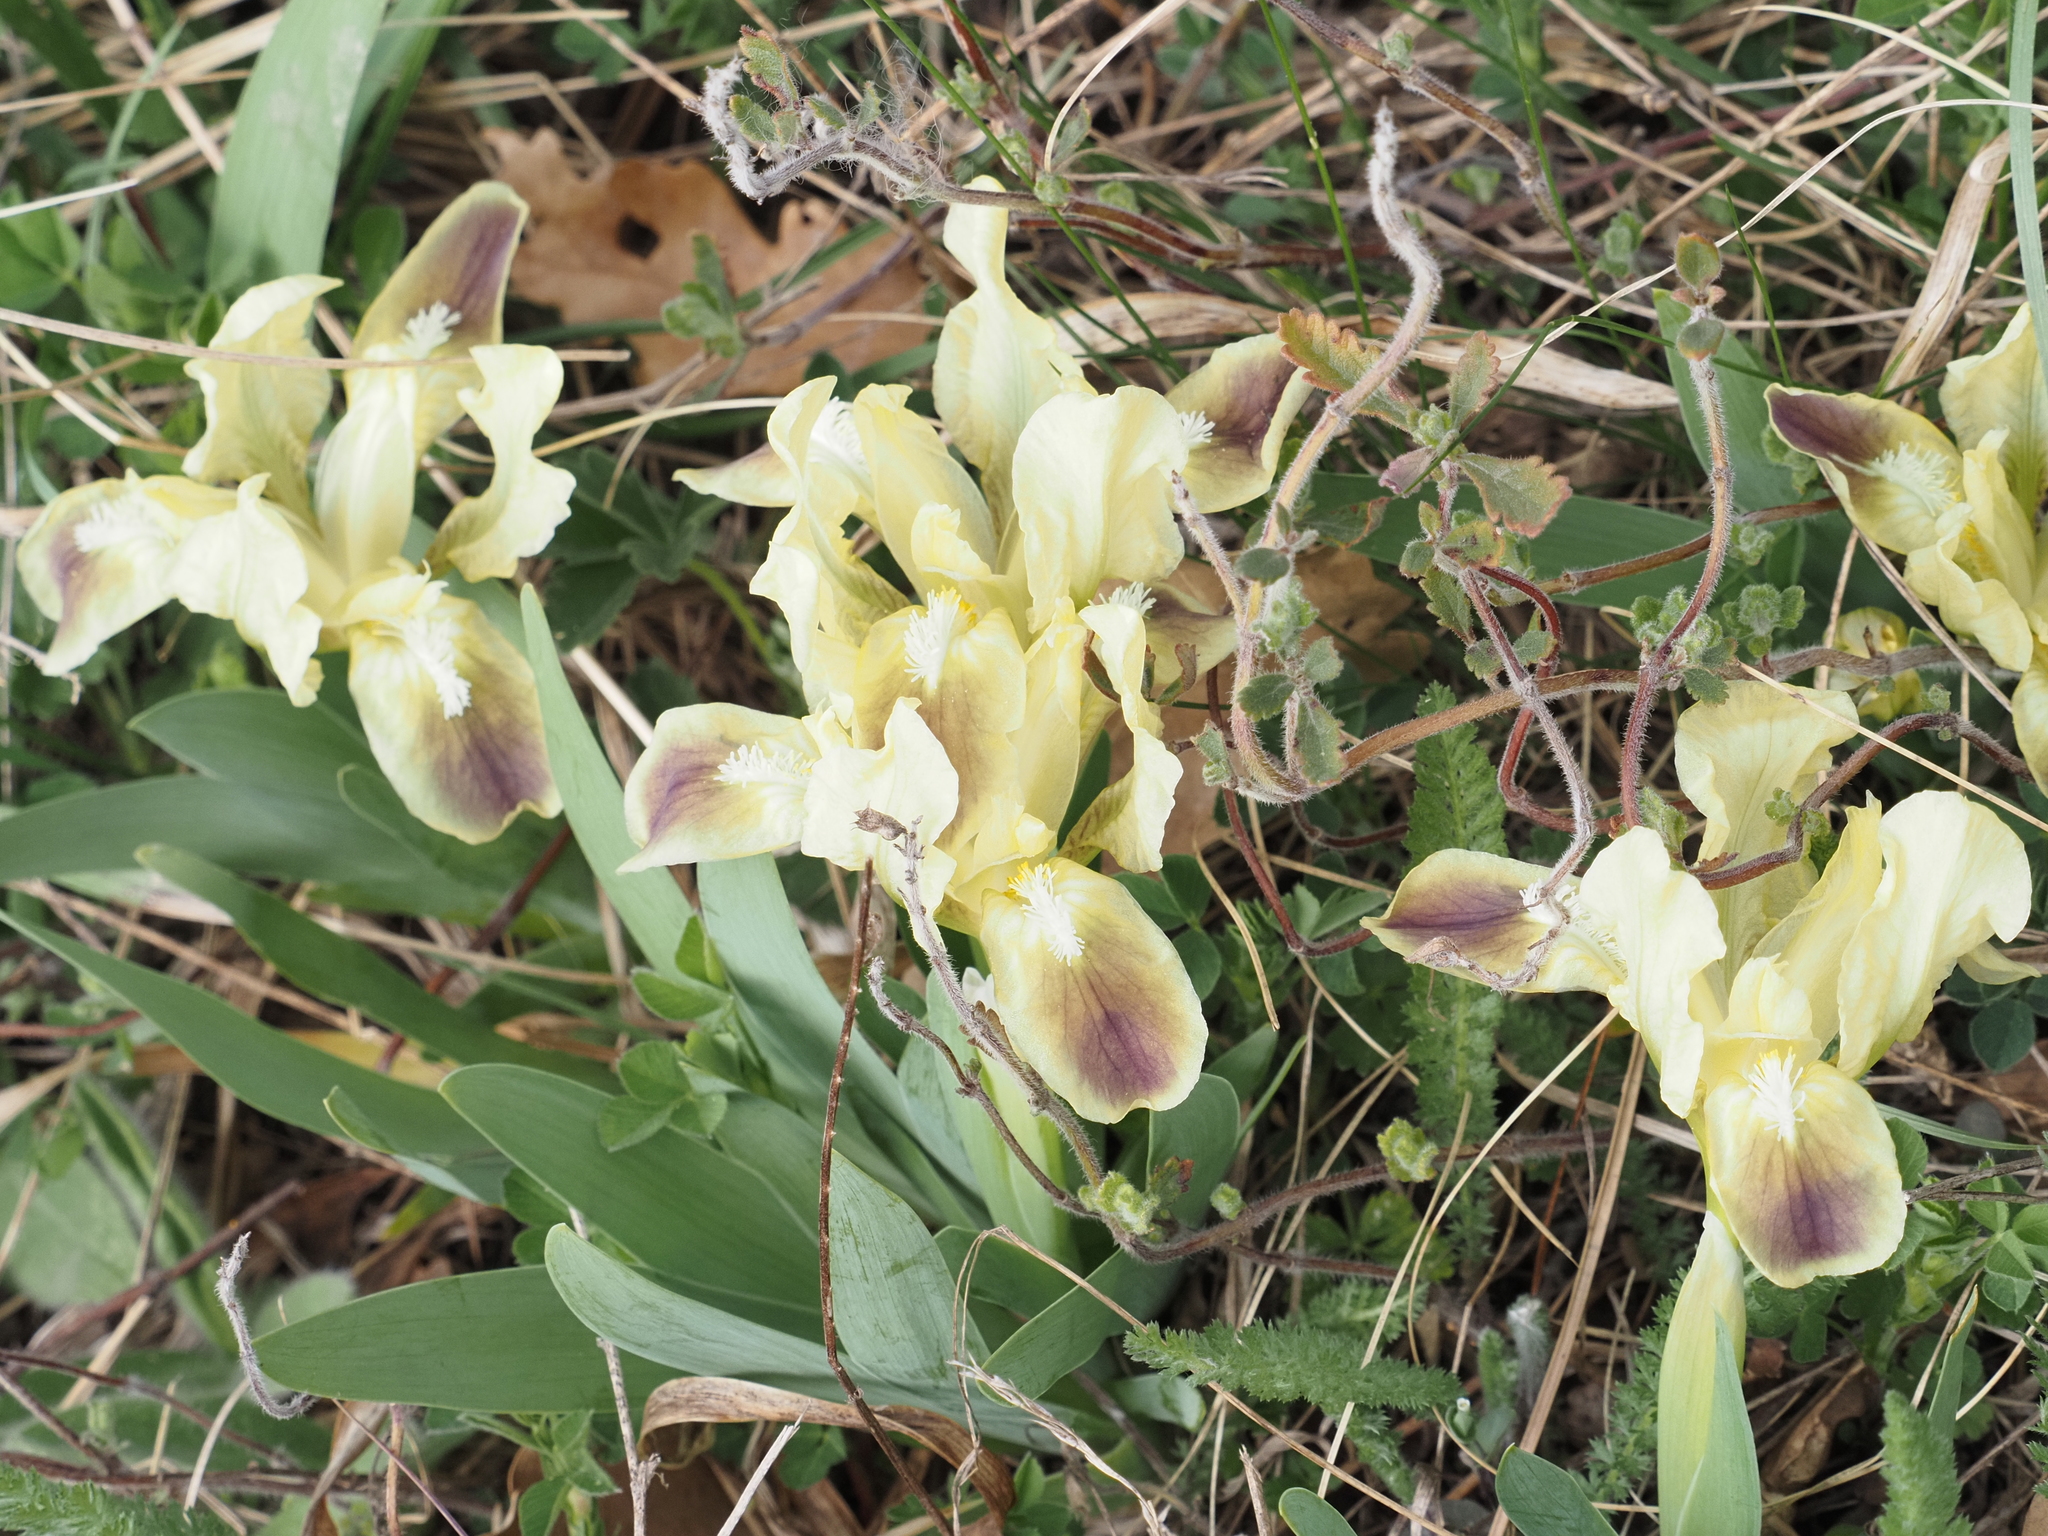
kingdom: Plantae
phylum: Tracheophyta
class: Liliopsida
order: Asparagales
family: Iridaceae
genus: Iris
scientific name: Iris pumila
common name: Dwarf iris
